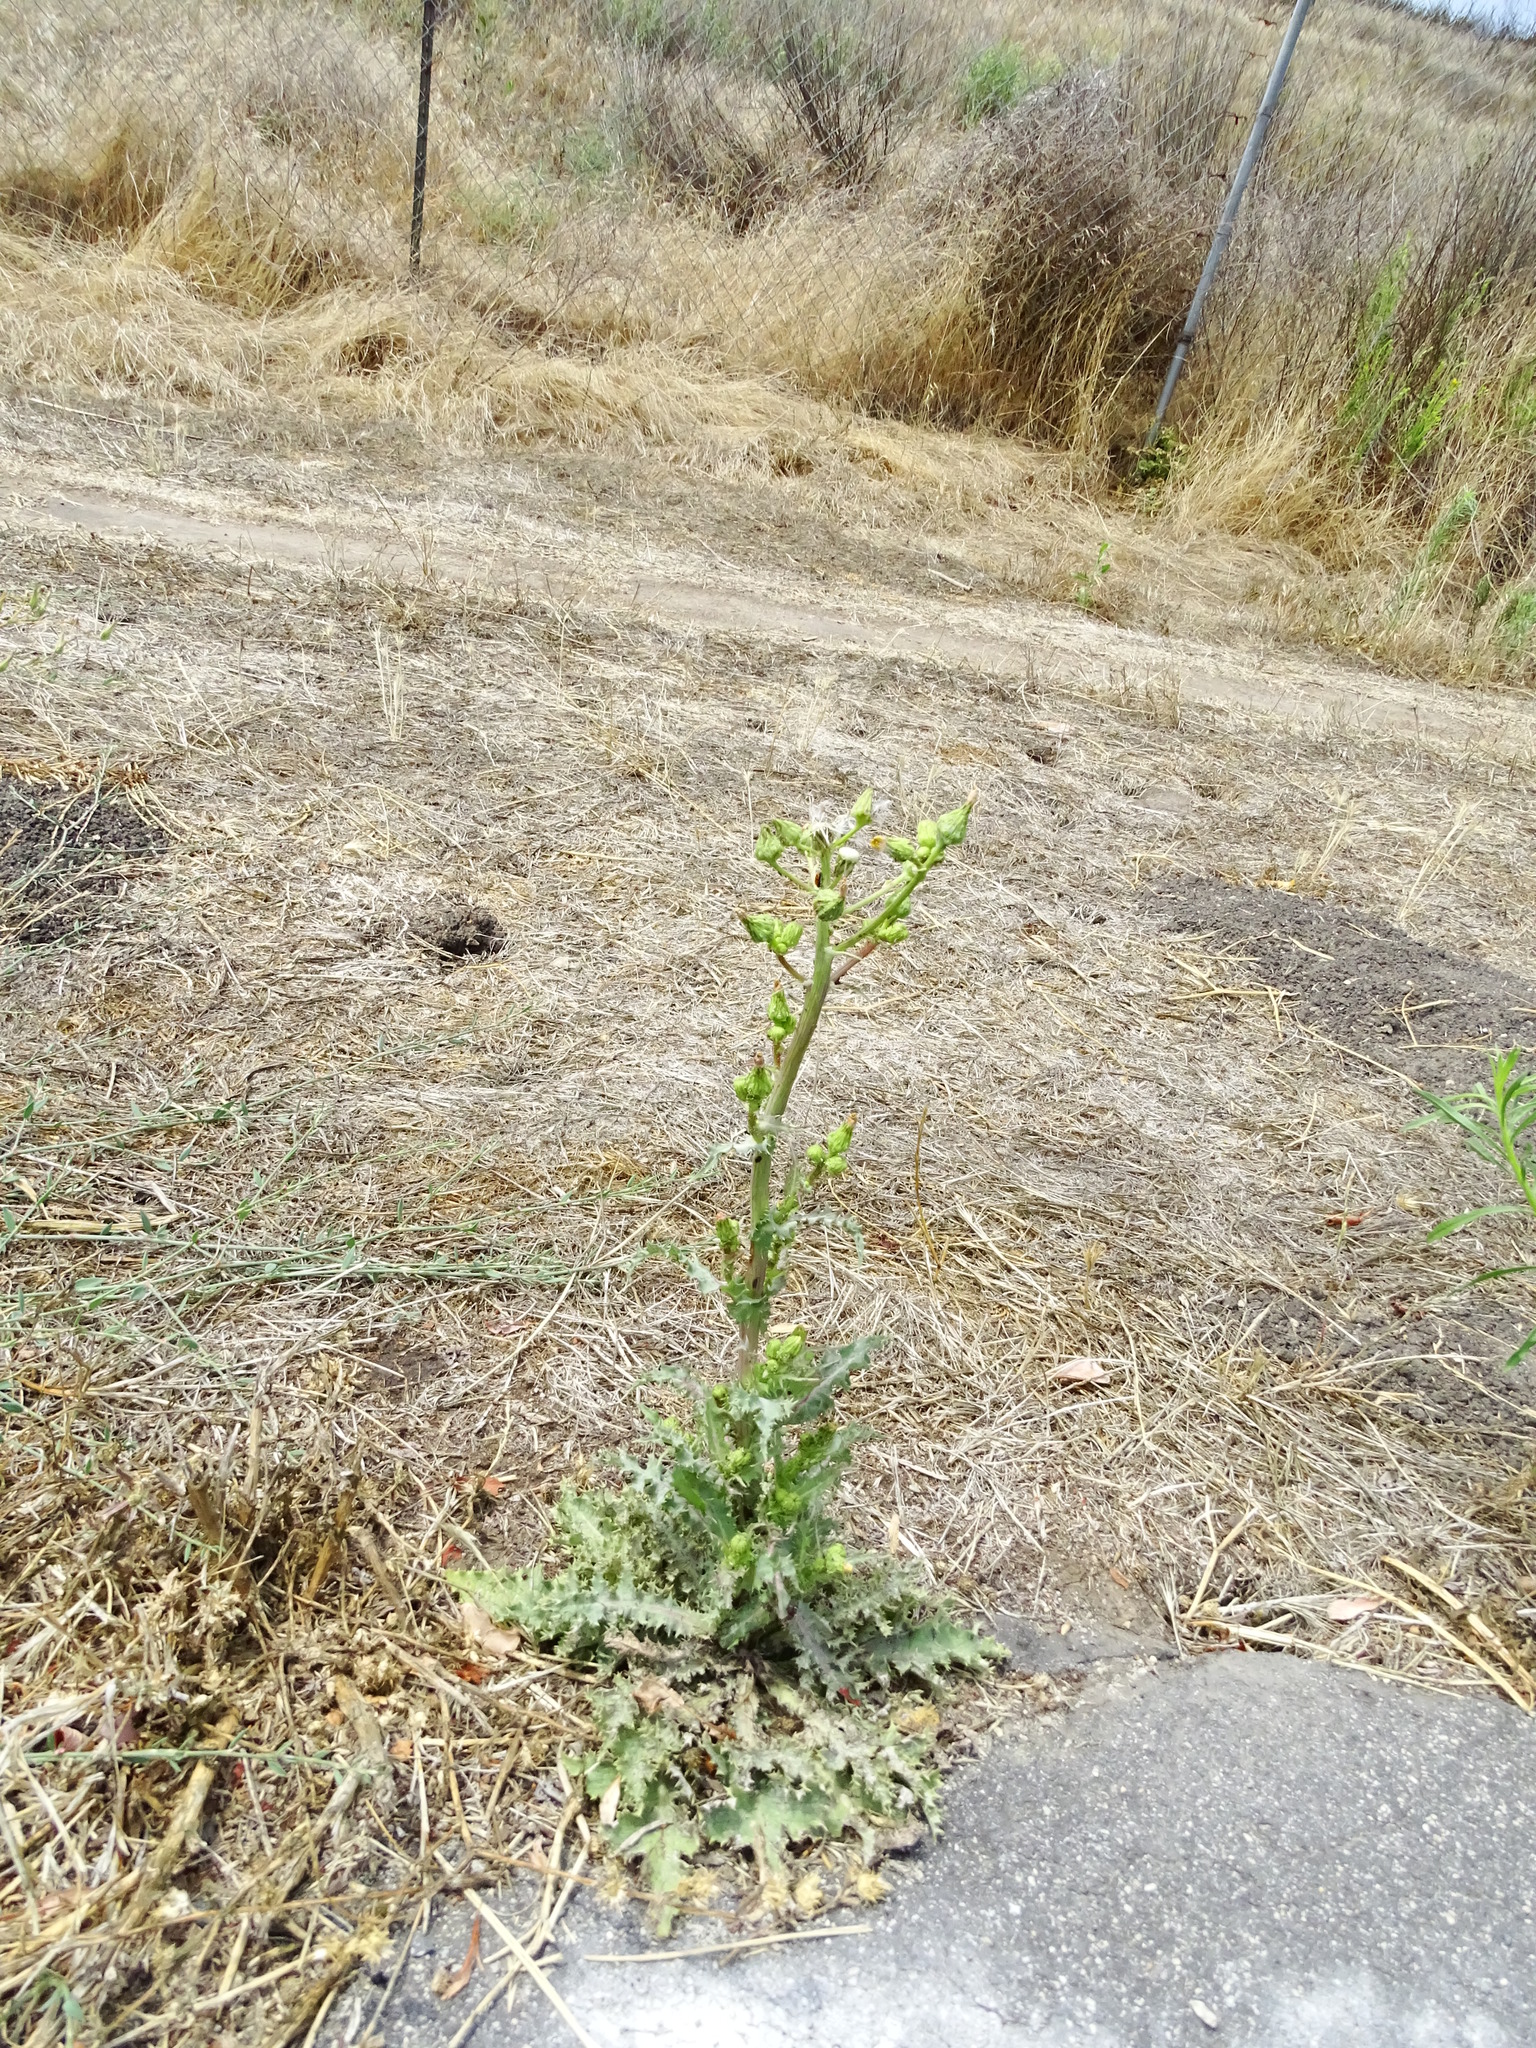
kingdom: Plantae
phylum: Tracheophyta
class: Magnoliopsida
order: Asterales
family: Asteraceae
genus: Sonchus
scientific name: Sonchus asper
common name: Prickly sow-thistle
